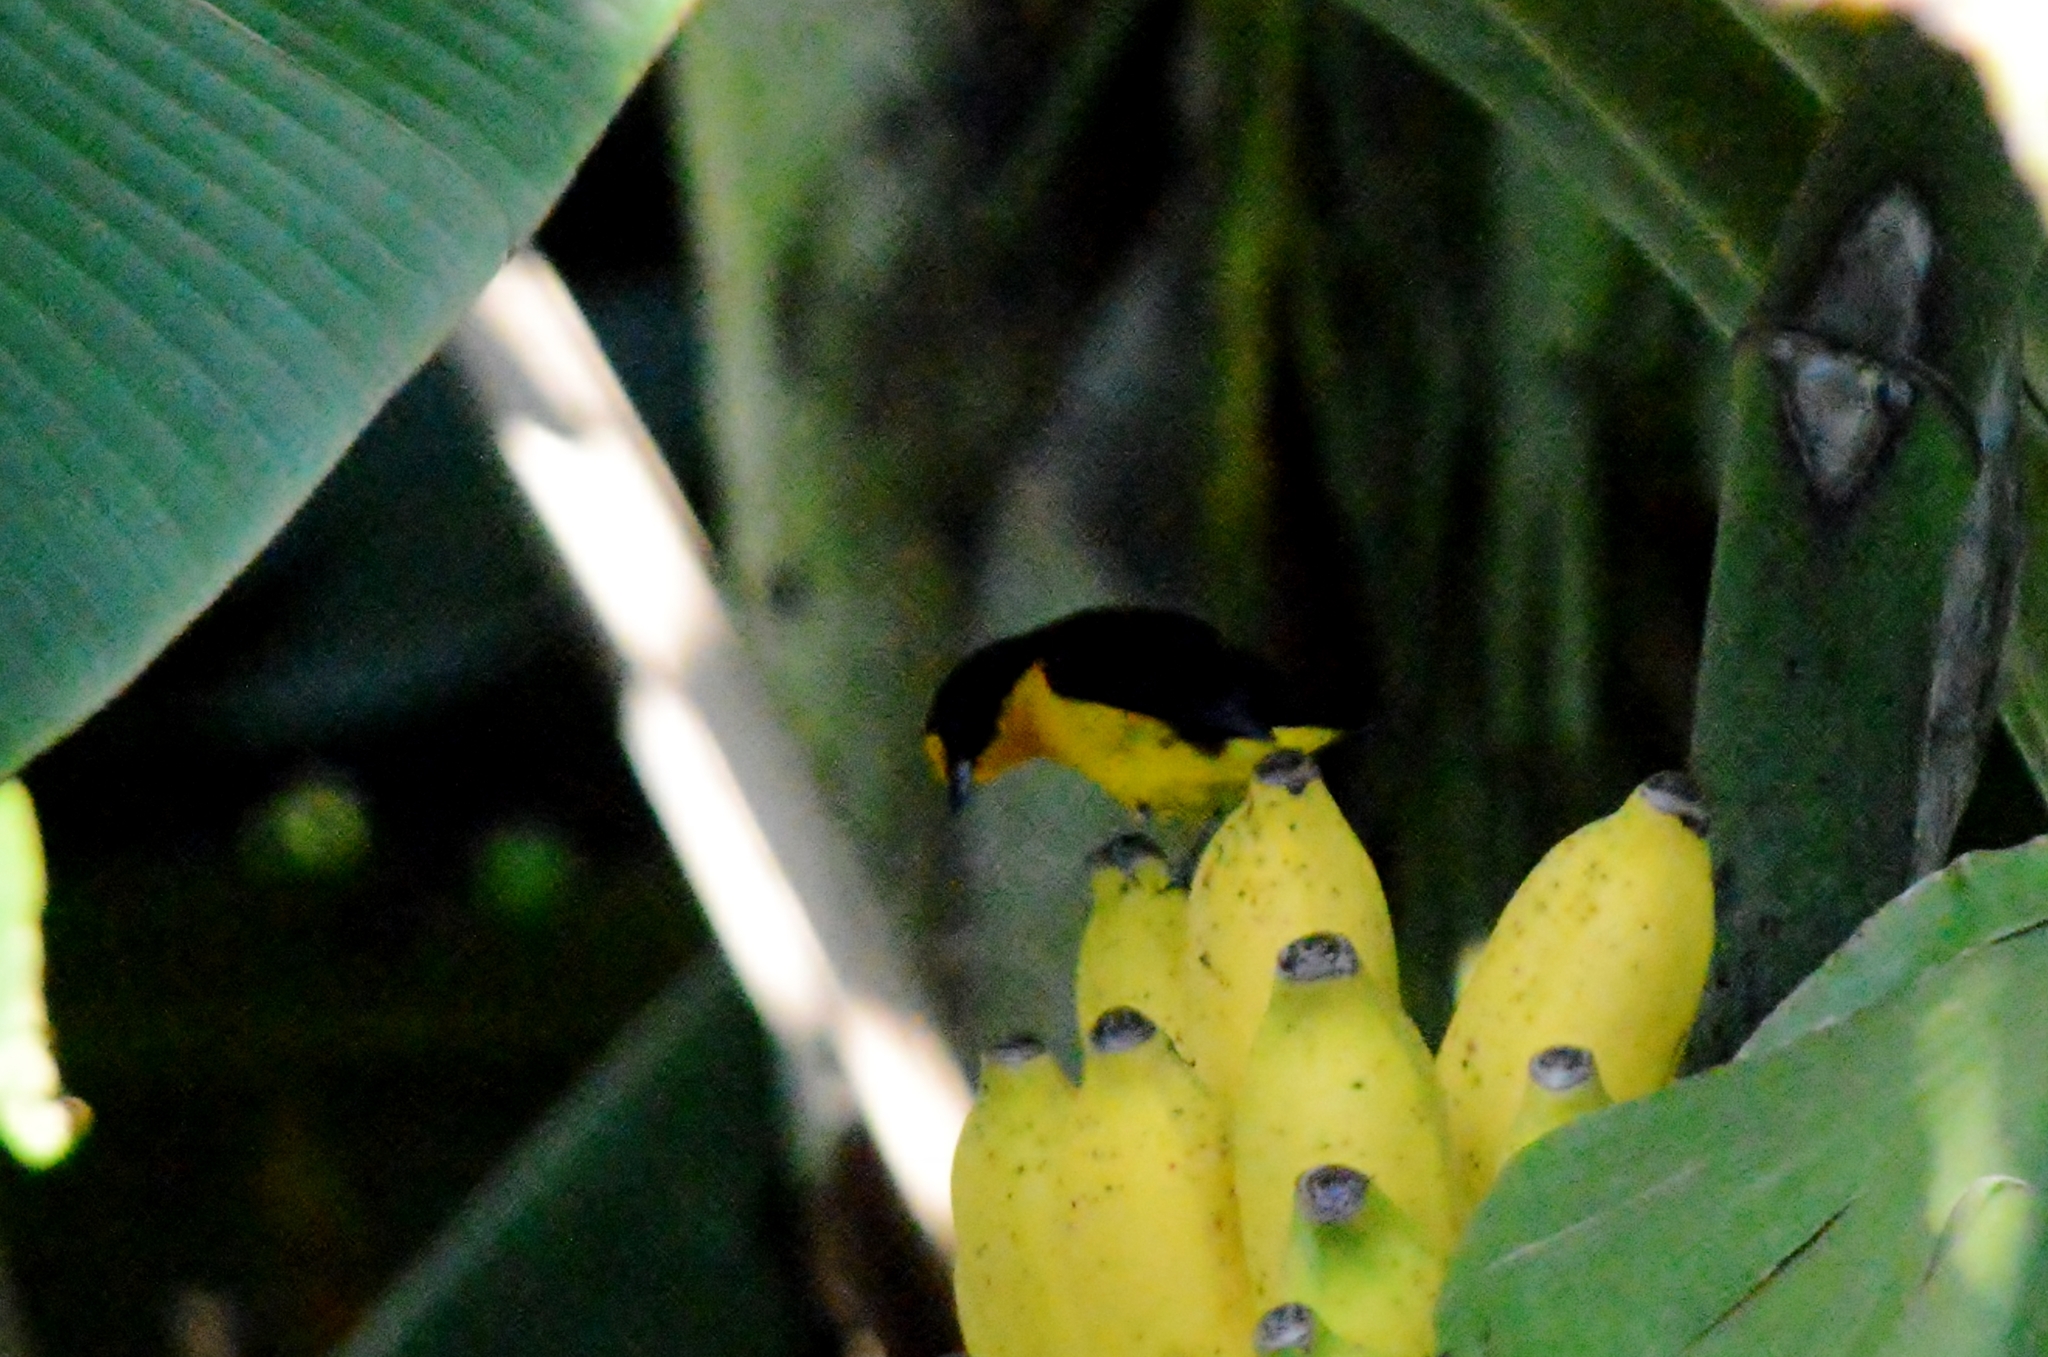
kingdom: Animalia
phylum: Chordata
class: Aves
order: Passeriformes
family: Fringillidae
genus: Euphonia
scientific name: Euphonia violacea
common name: Violaceous euphonia
